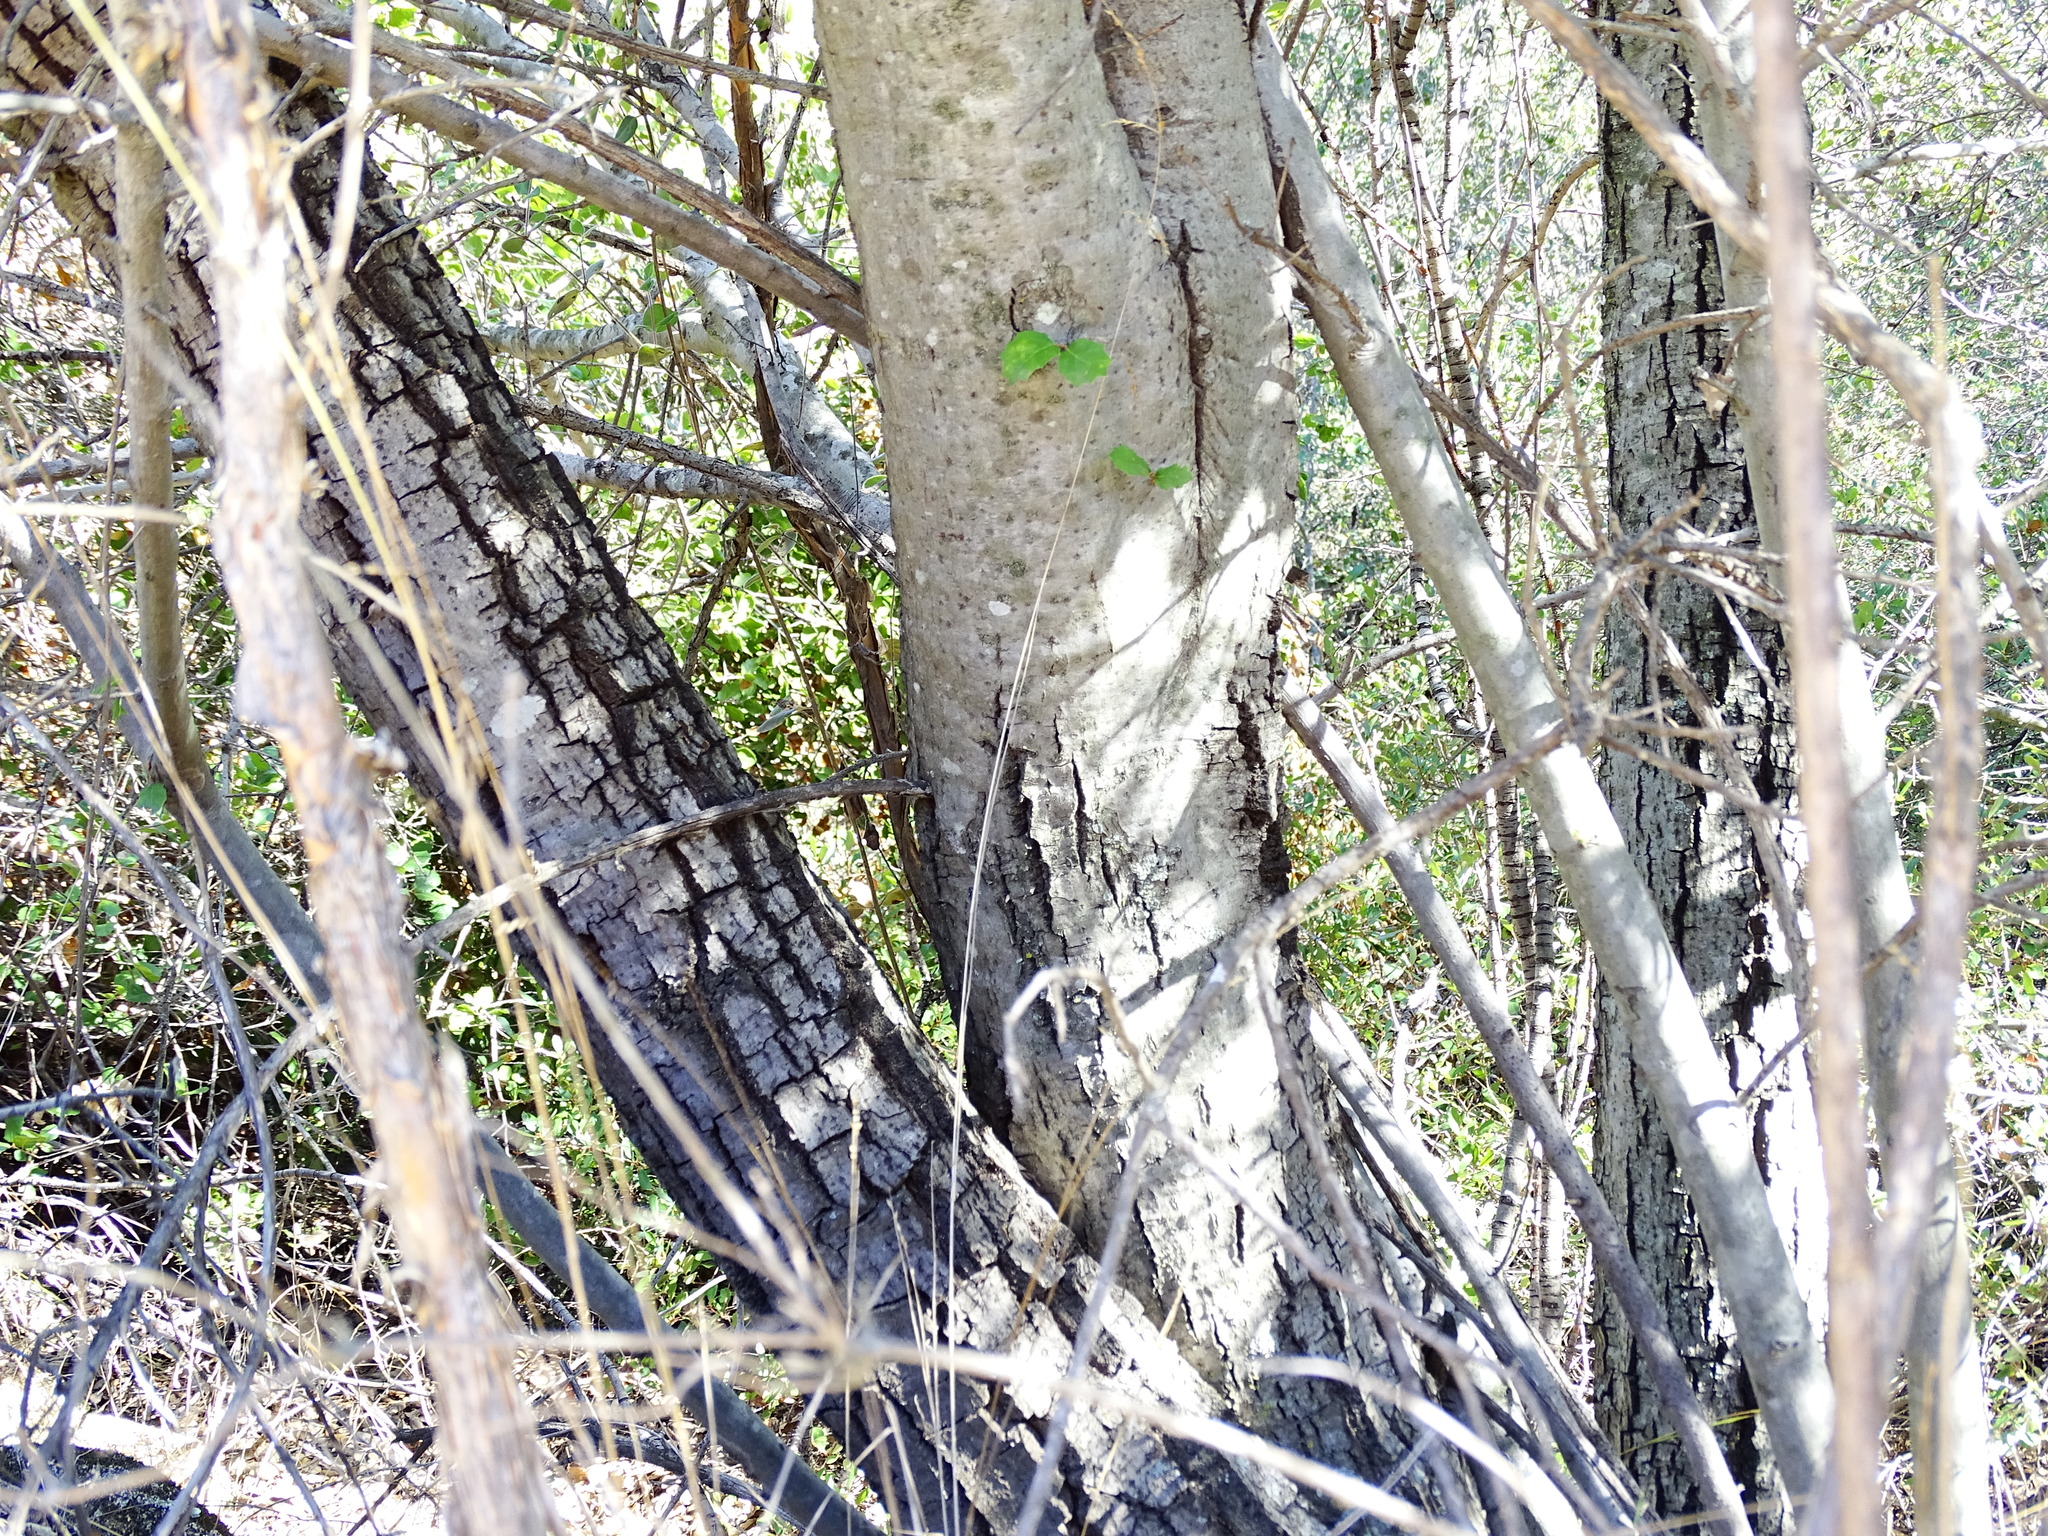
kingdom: Plantae
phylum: Tracheophyta
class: Magnoliopsida
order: Fagales
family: Fagaceae
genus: Quercus
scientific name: Quercus wislizeni
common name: Interior live oak
